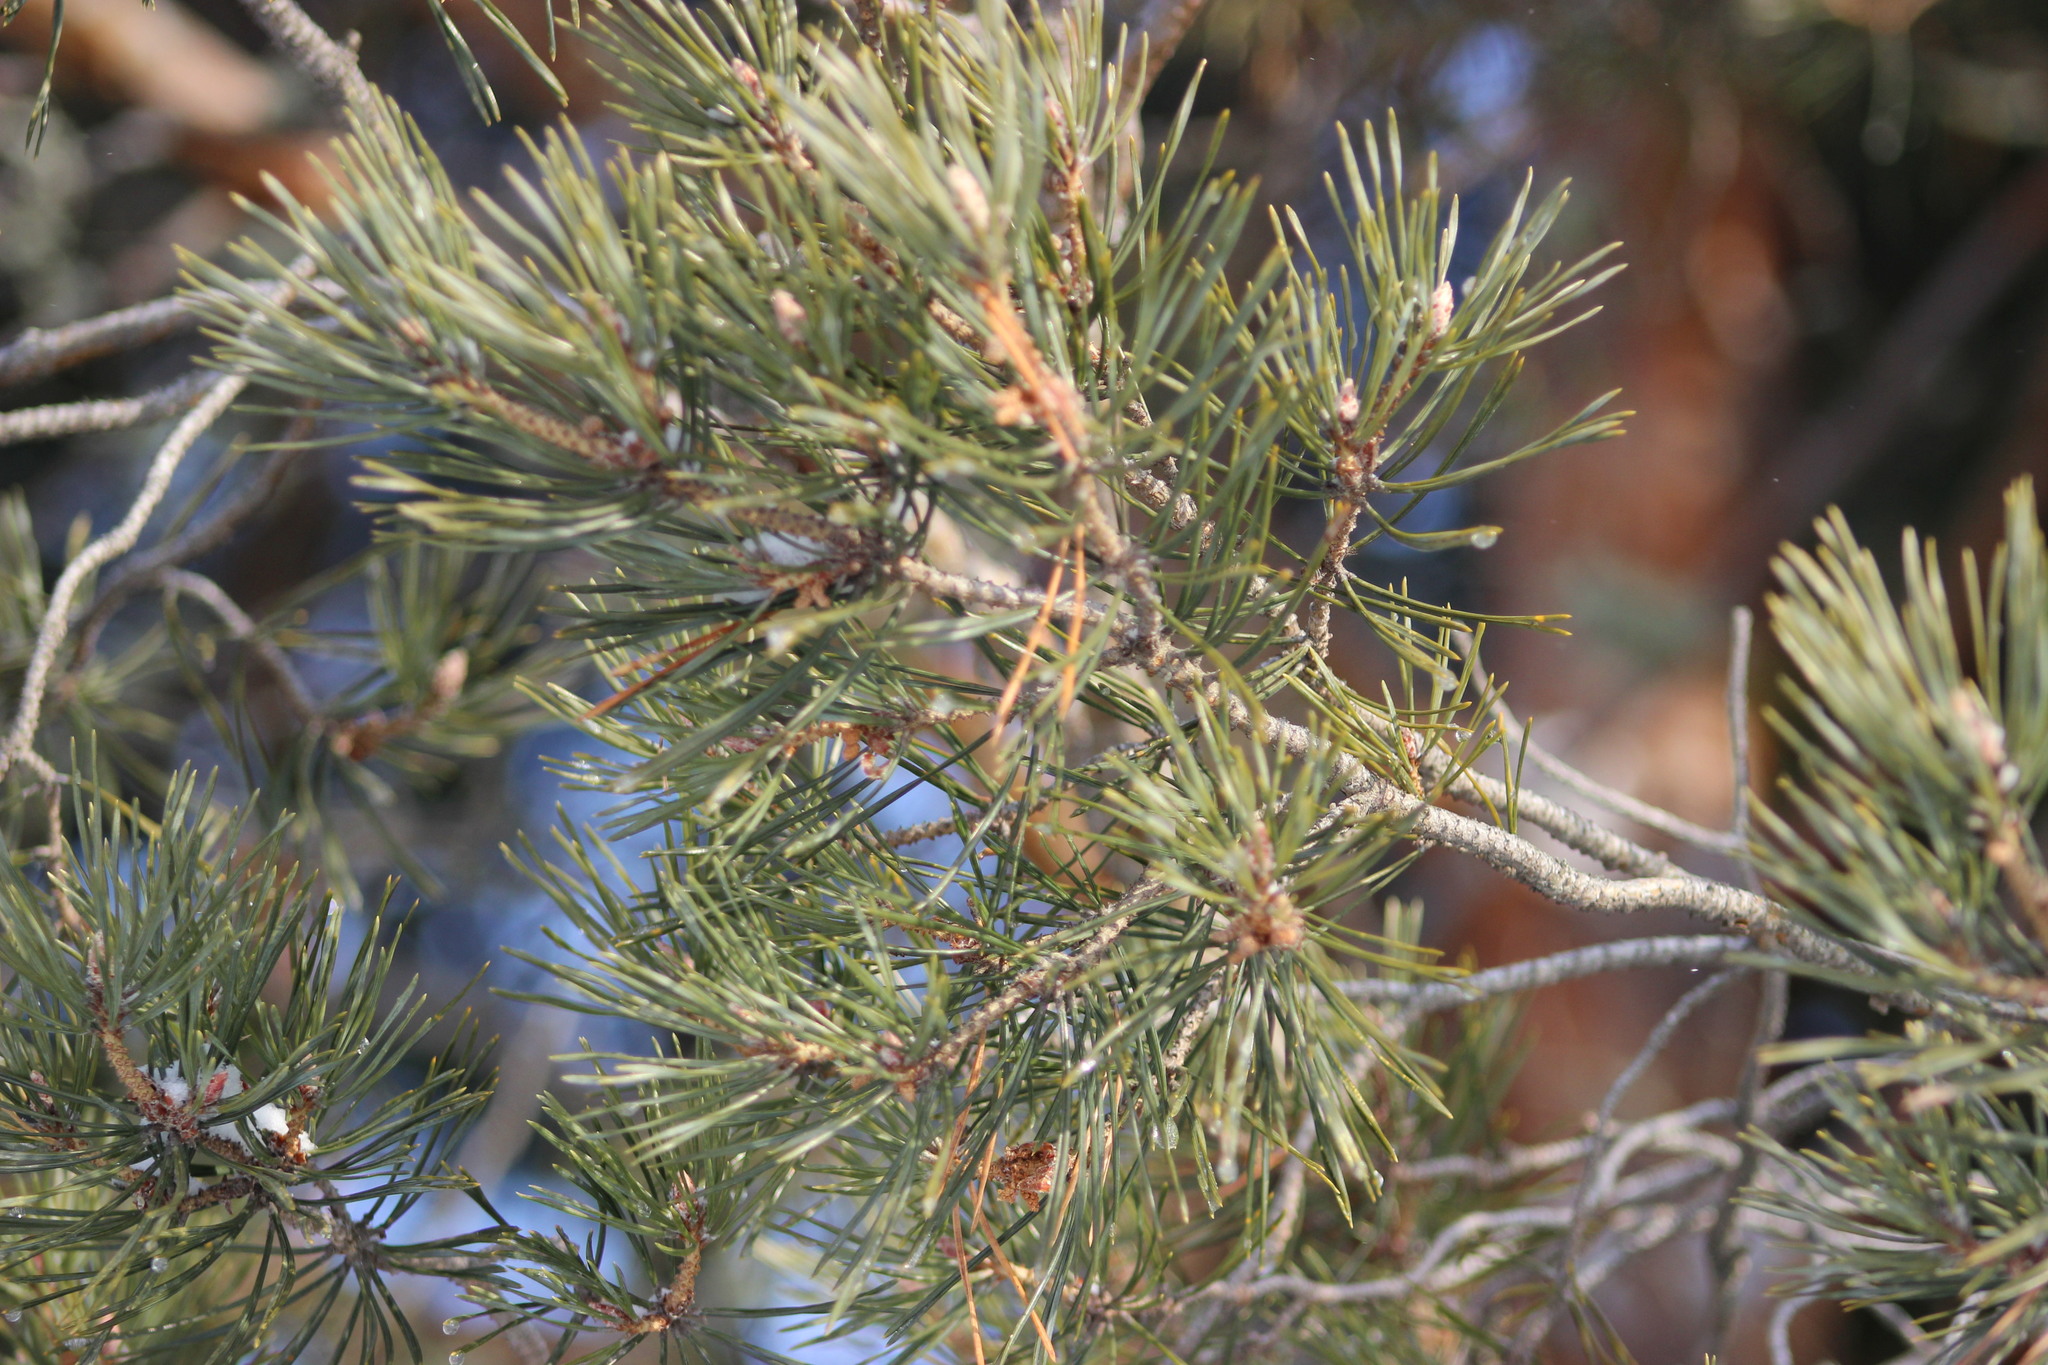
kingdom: Plantae
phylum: Tracheophyta
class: Pinopsida
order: Pinales
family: Pinaceae
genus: Pinus
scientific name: Pinus sylvestris
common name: Scots pine
